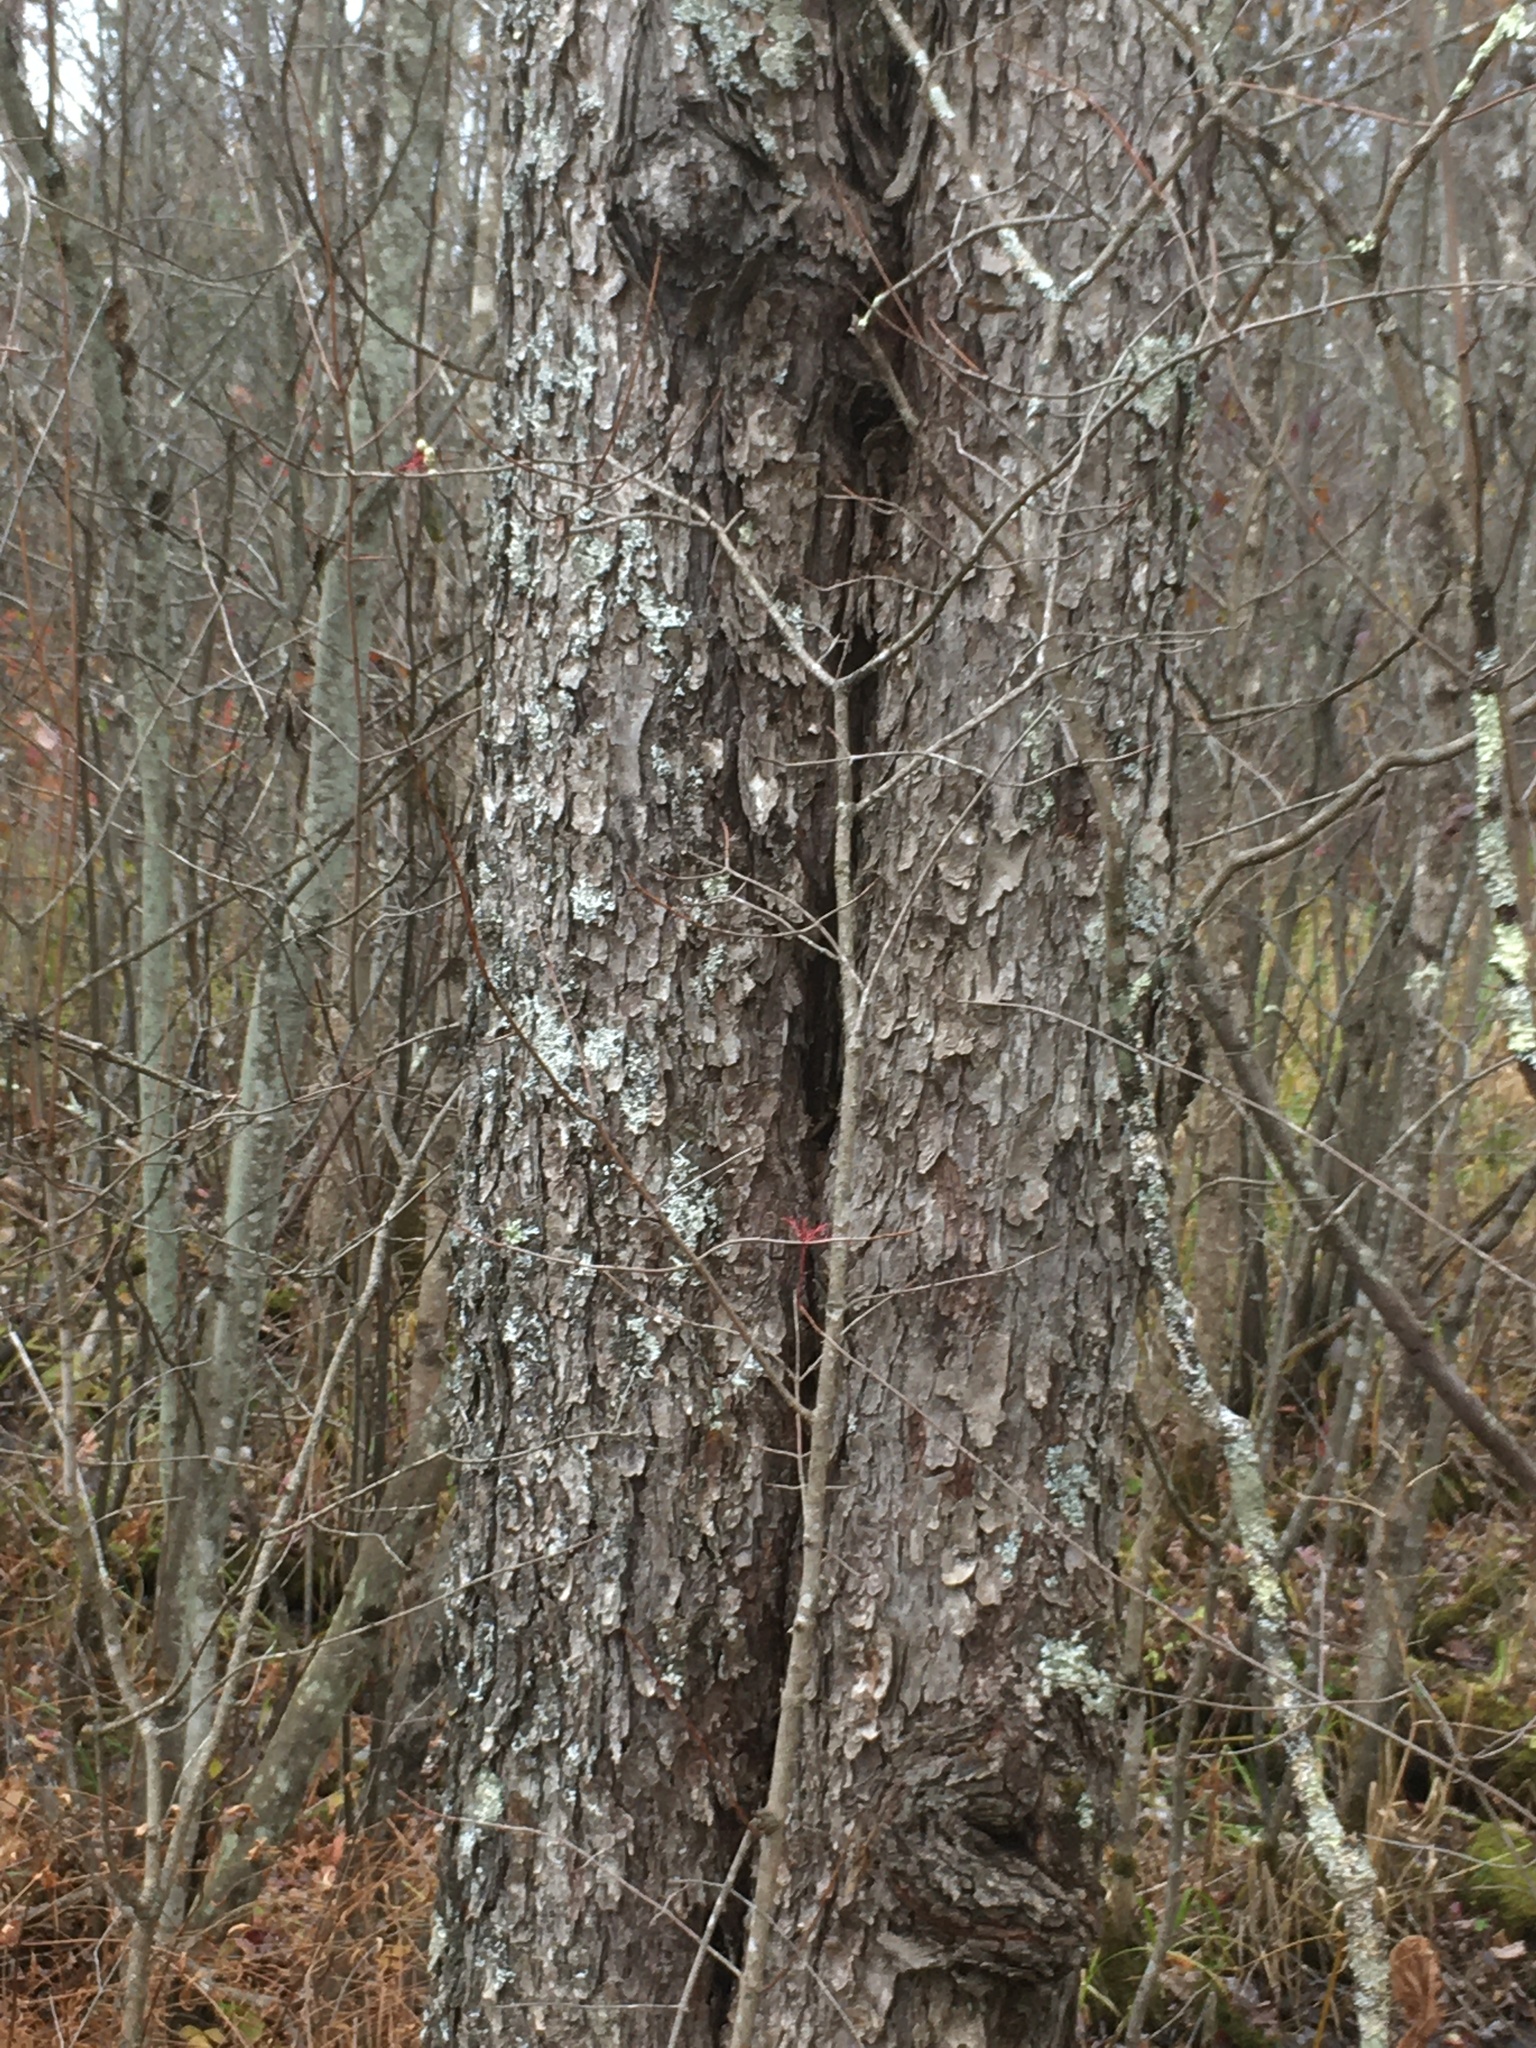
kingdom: Plantae
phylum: Tracheophyta
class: Magnoliopsida
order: Sapindales
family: Sapindaceae
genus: Acer
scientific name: Acer rubrum
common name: Red maple
